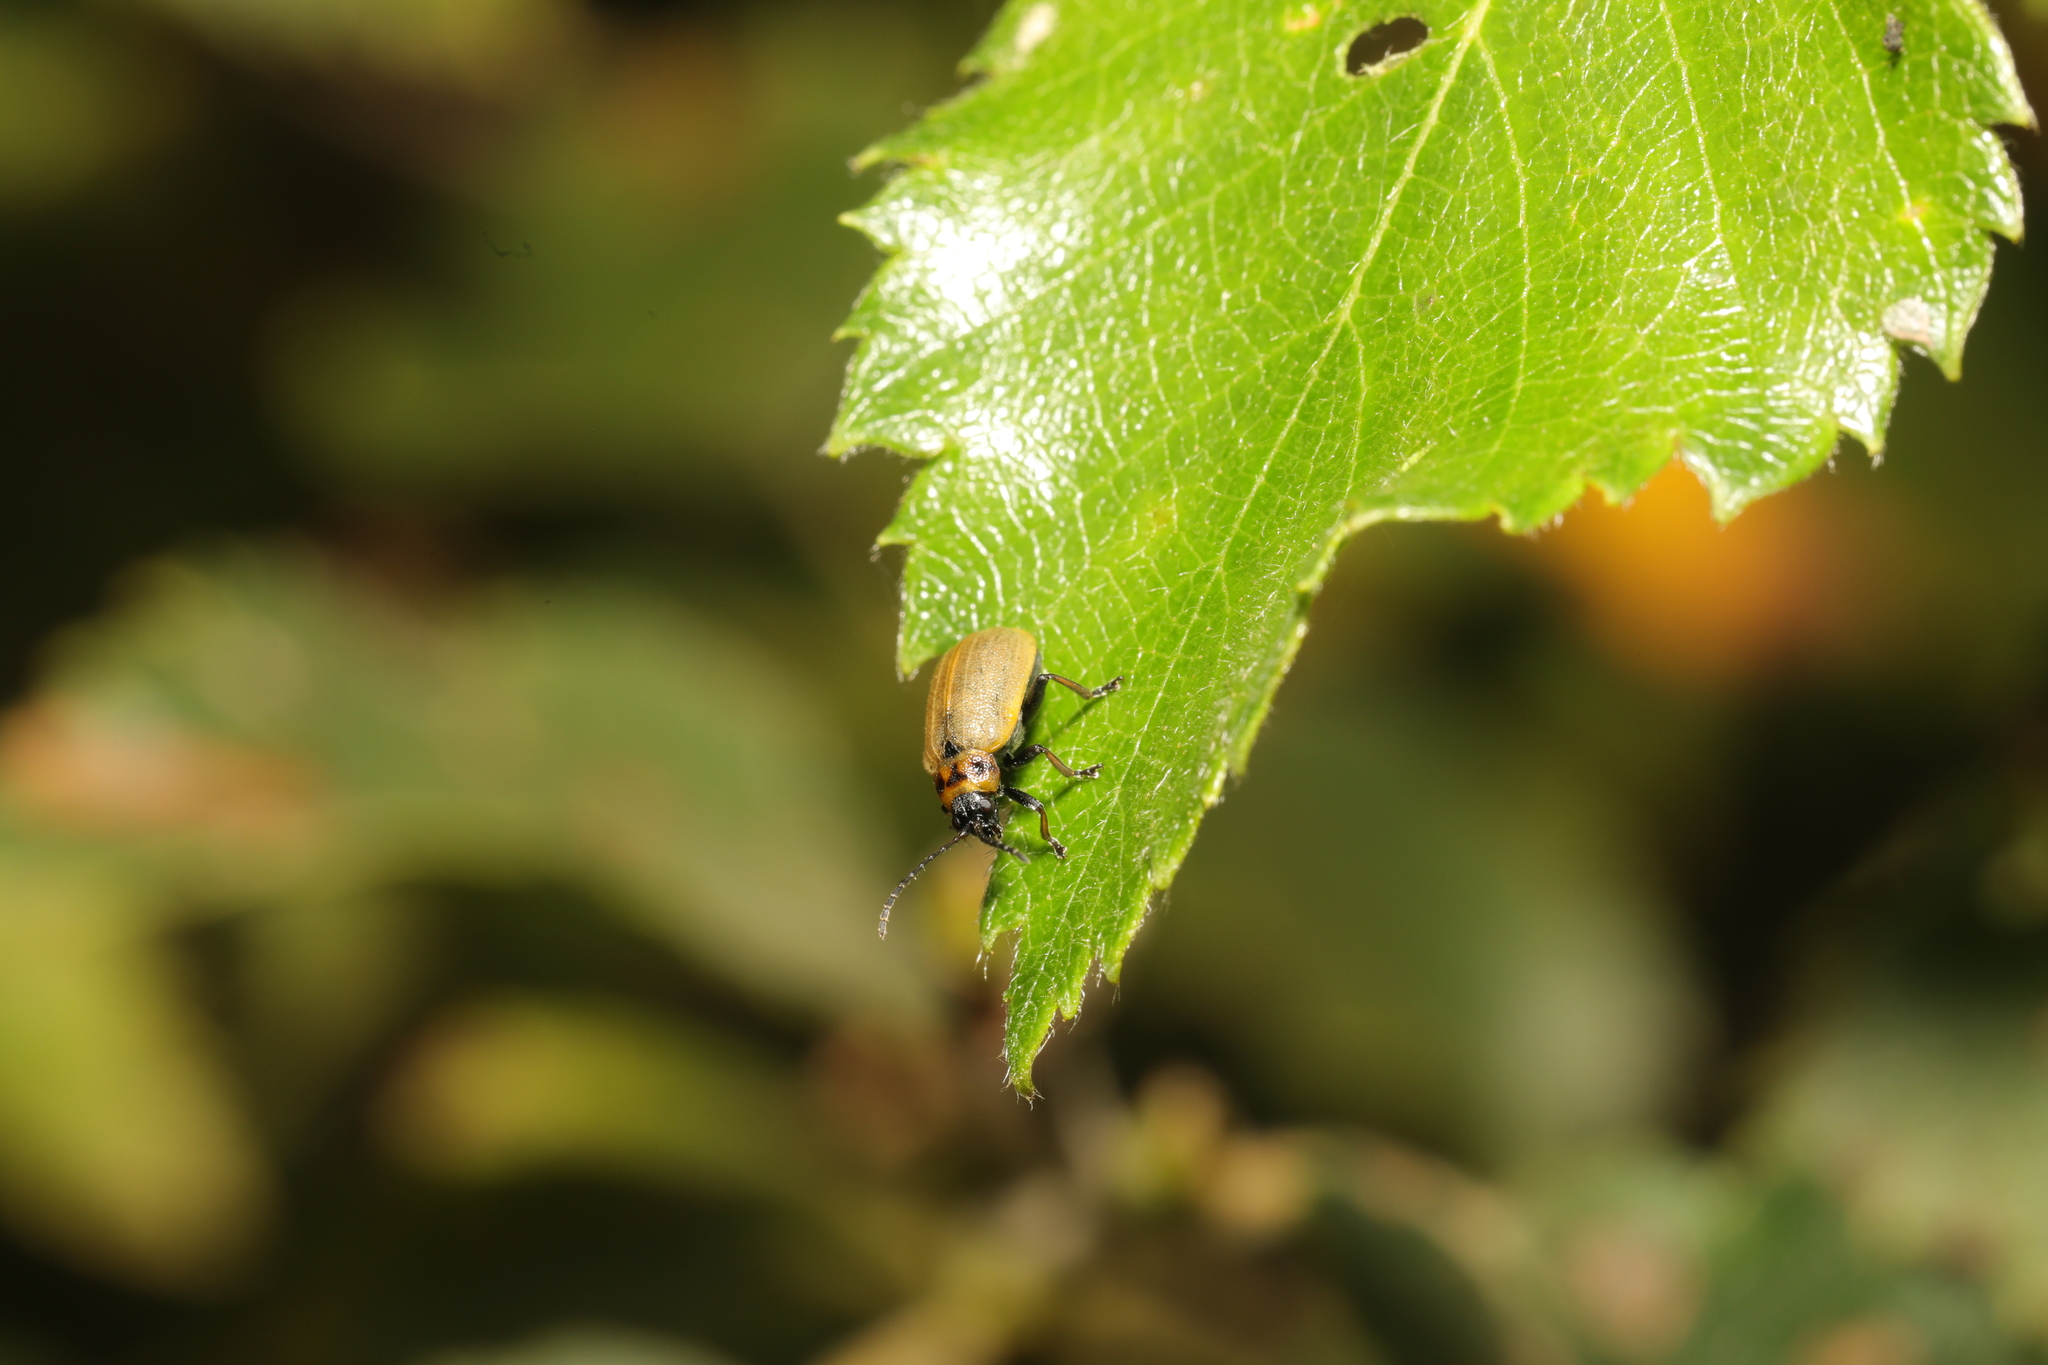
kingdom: Animalia
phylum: Arthropoda
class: Insecta
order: Coleoptera
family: Chrysomelidae
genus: Lochmaea
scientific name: Lochmaea caprea
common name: Willow leaf beetle
